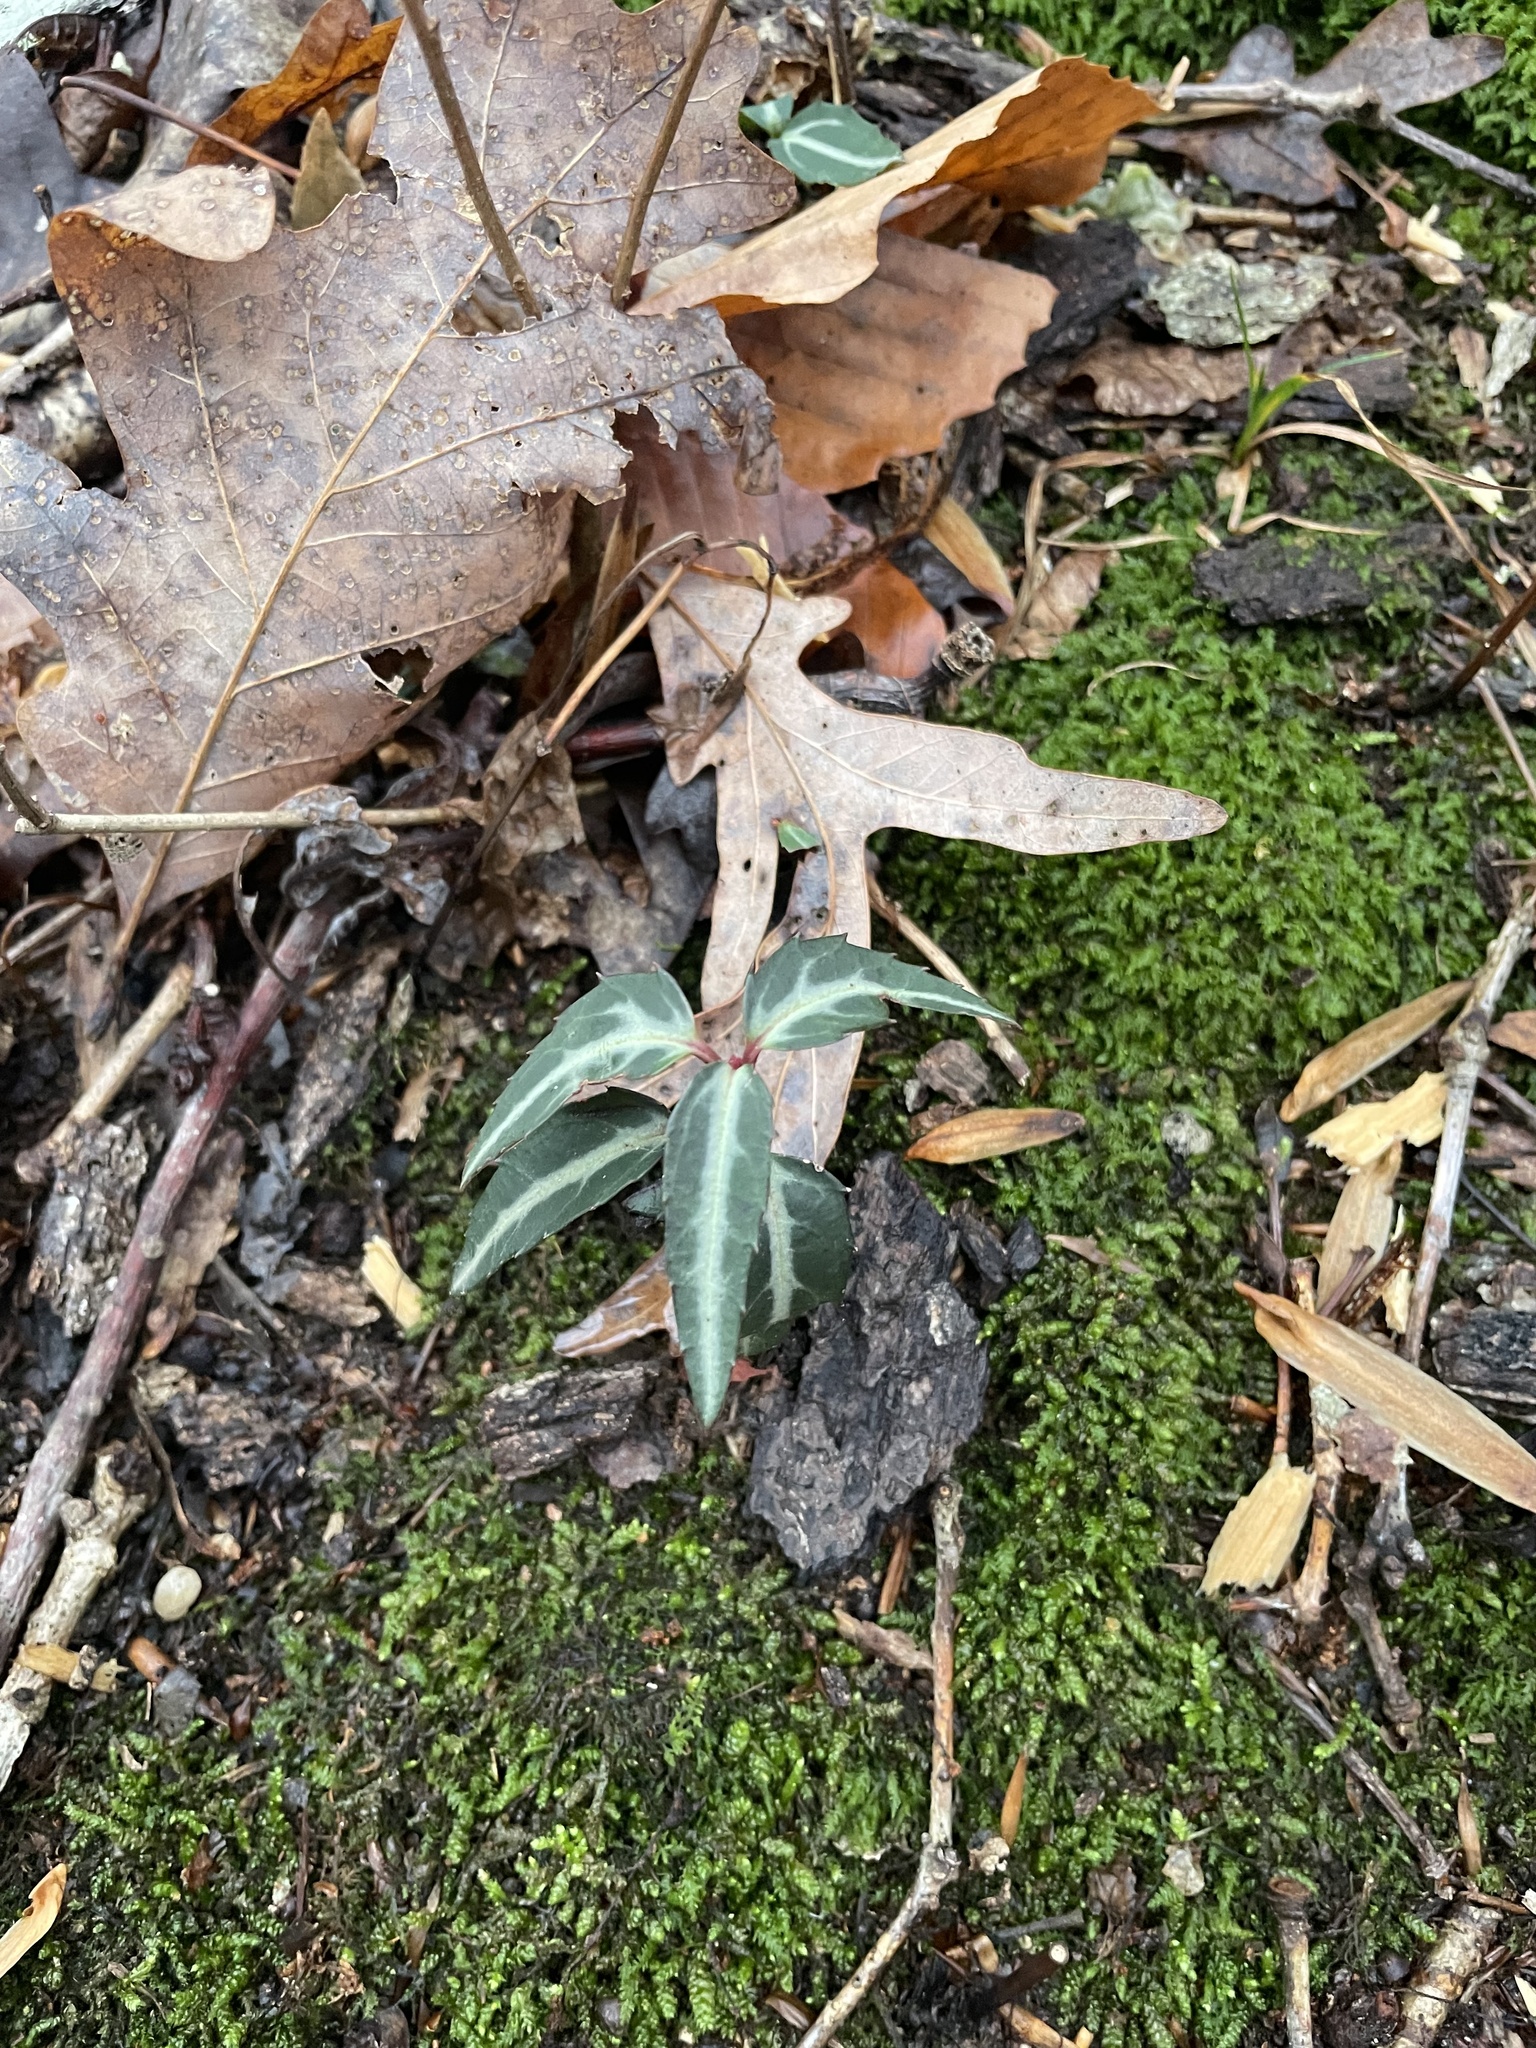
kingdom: Plantae
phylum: Tracheophyta
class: Magnoliopsida
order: Ericales
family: Ericaceae
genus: Chimaphila
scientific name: Chimaphila maculata
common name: Spotted pipsissewa
